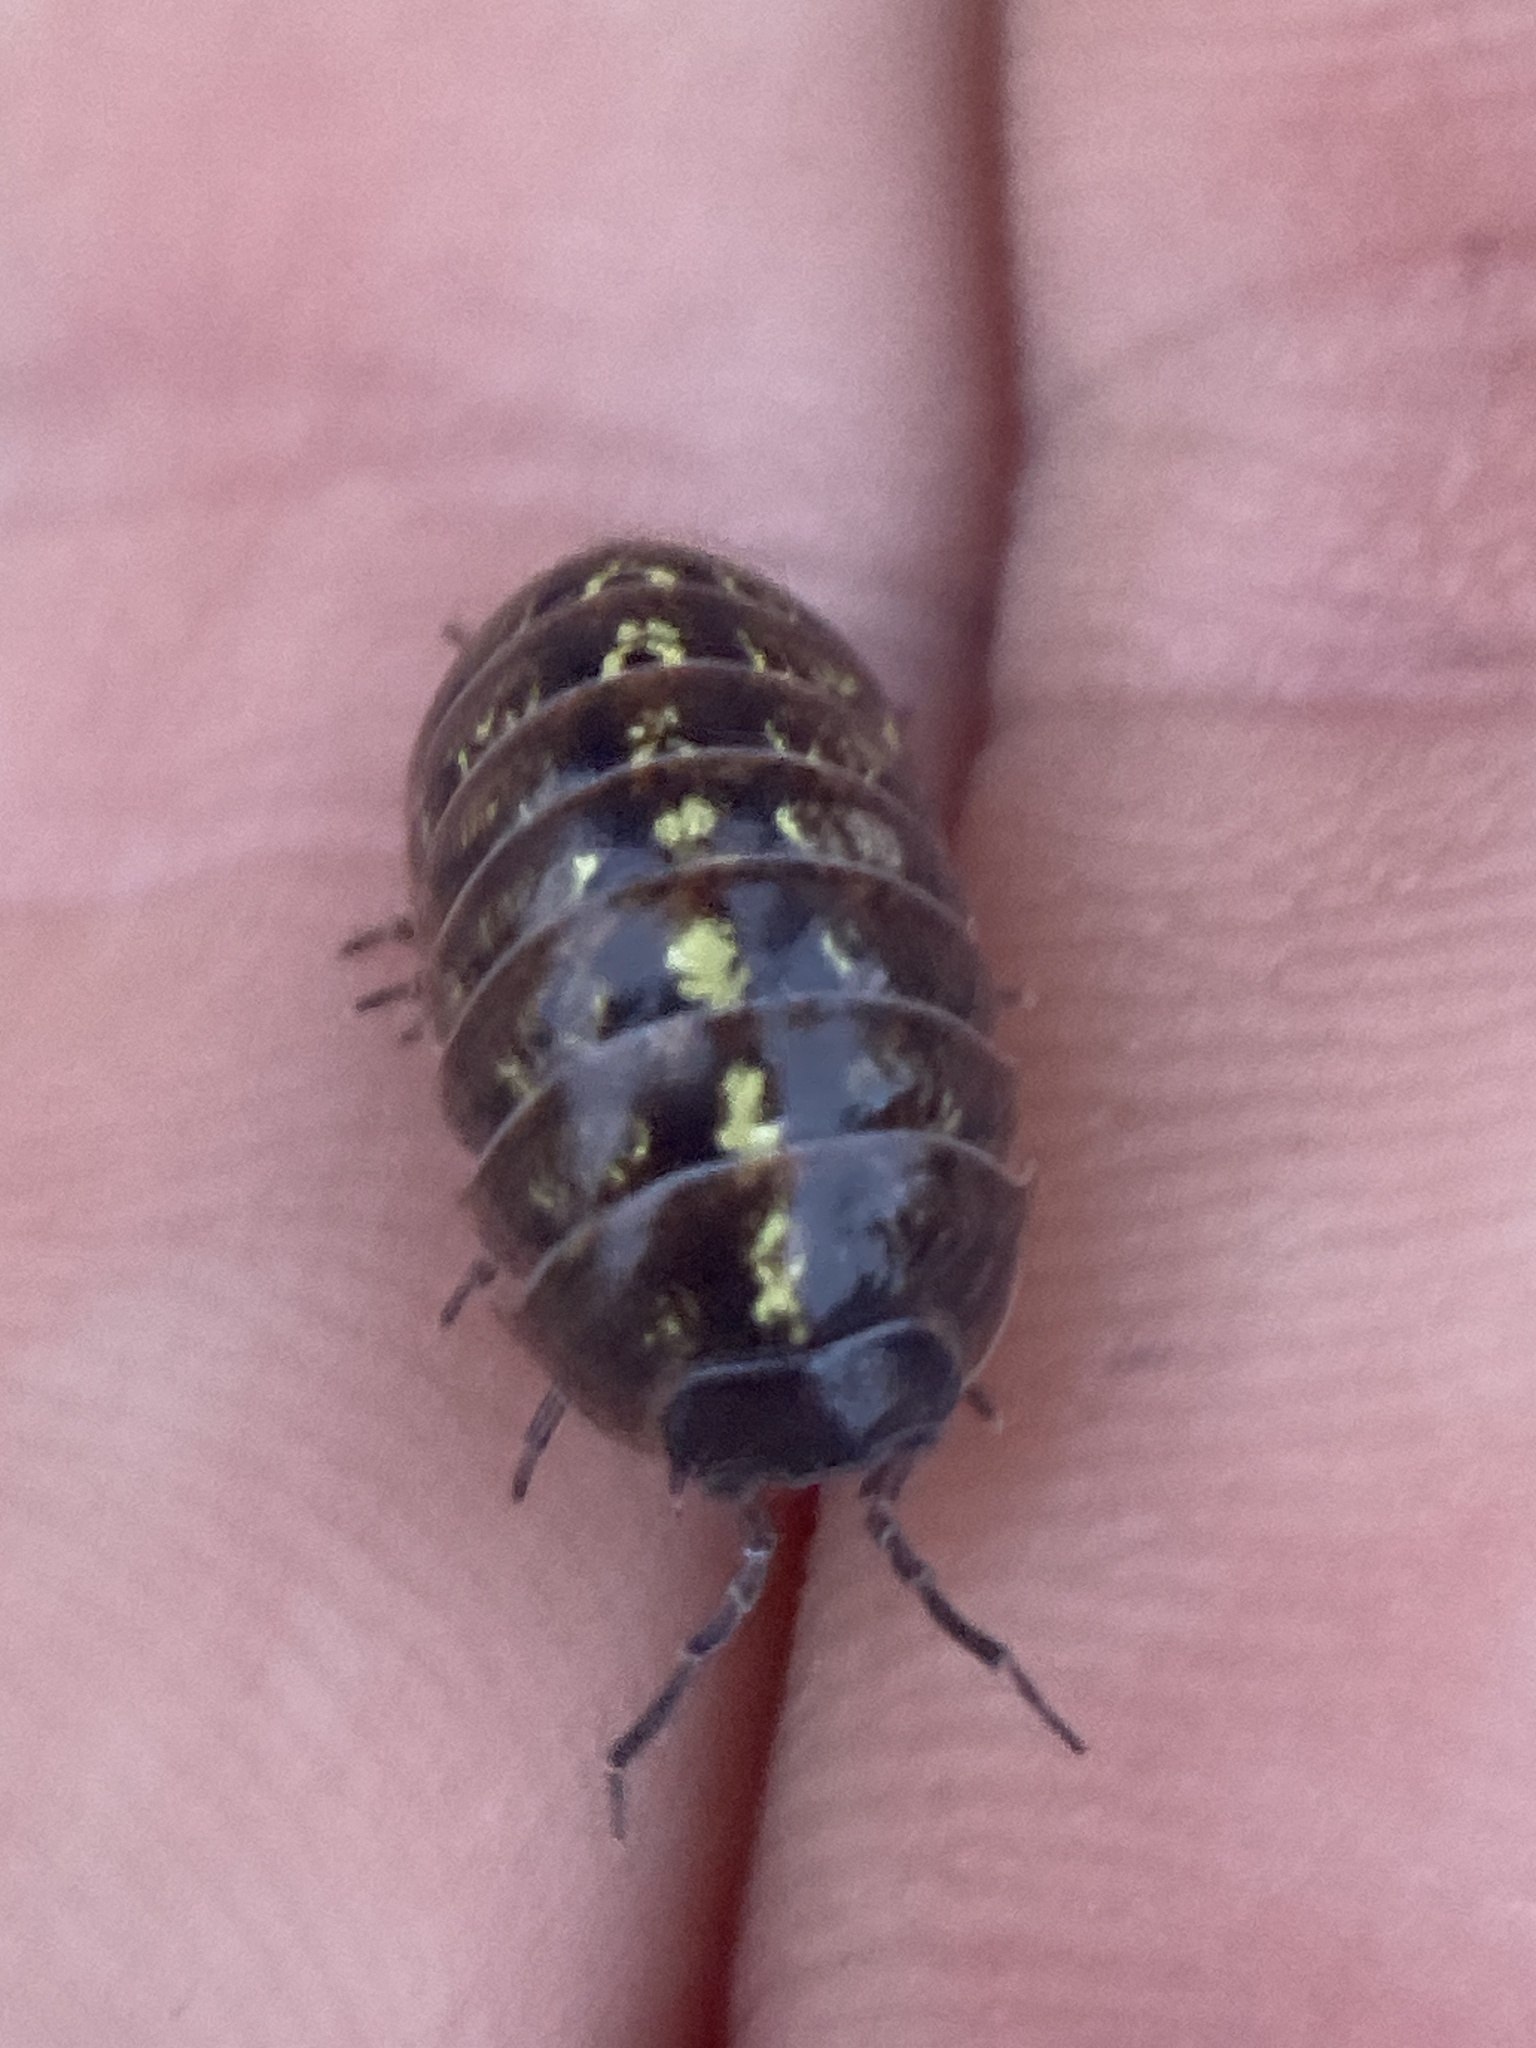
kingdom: Animalia
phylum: Arthropoda
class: Malacostraca
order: Isopoda
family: Armadillidiidae
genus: Armadillidium
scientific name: Armadillidium vulgare
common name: Common pill woodlouse
